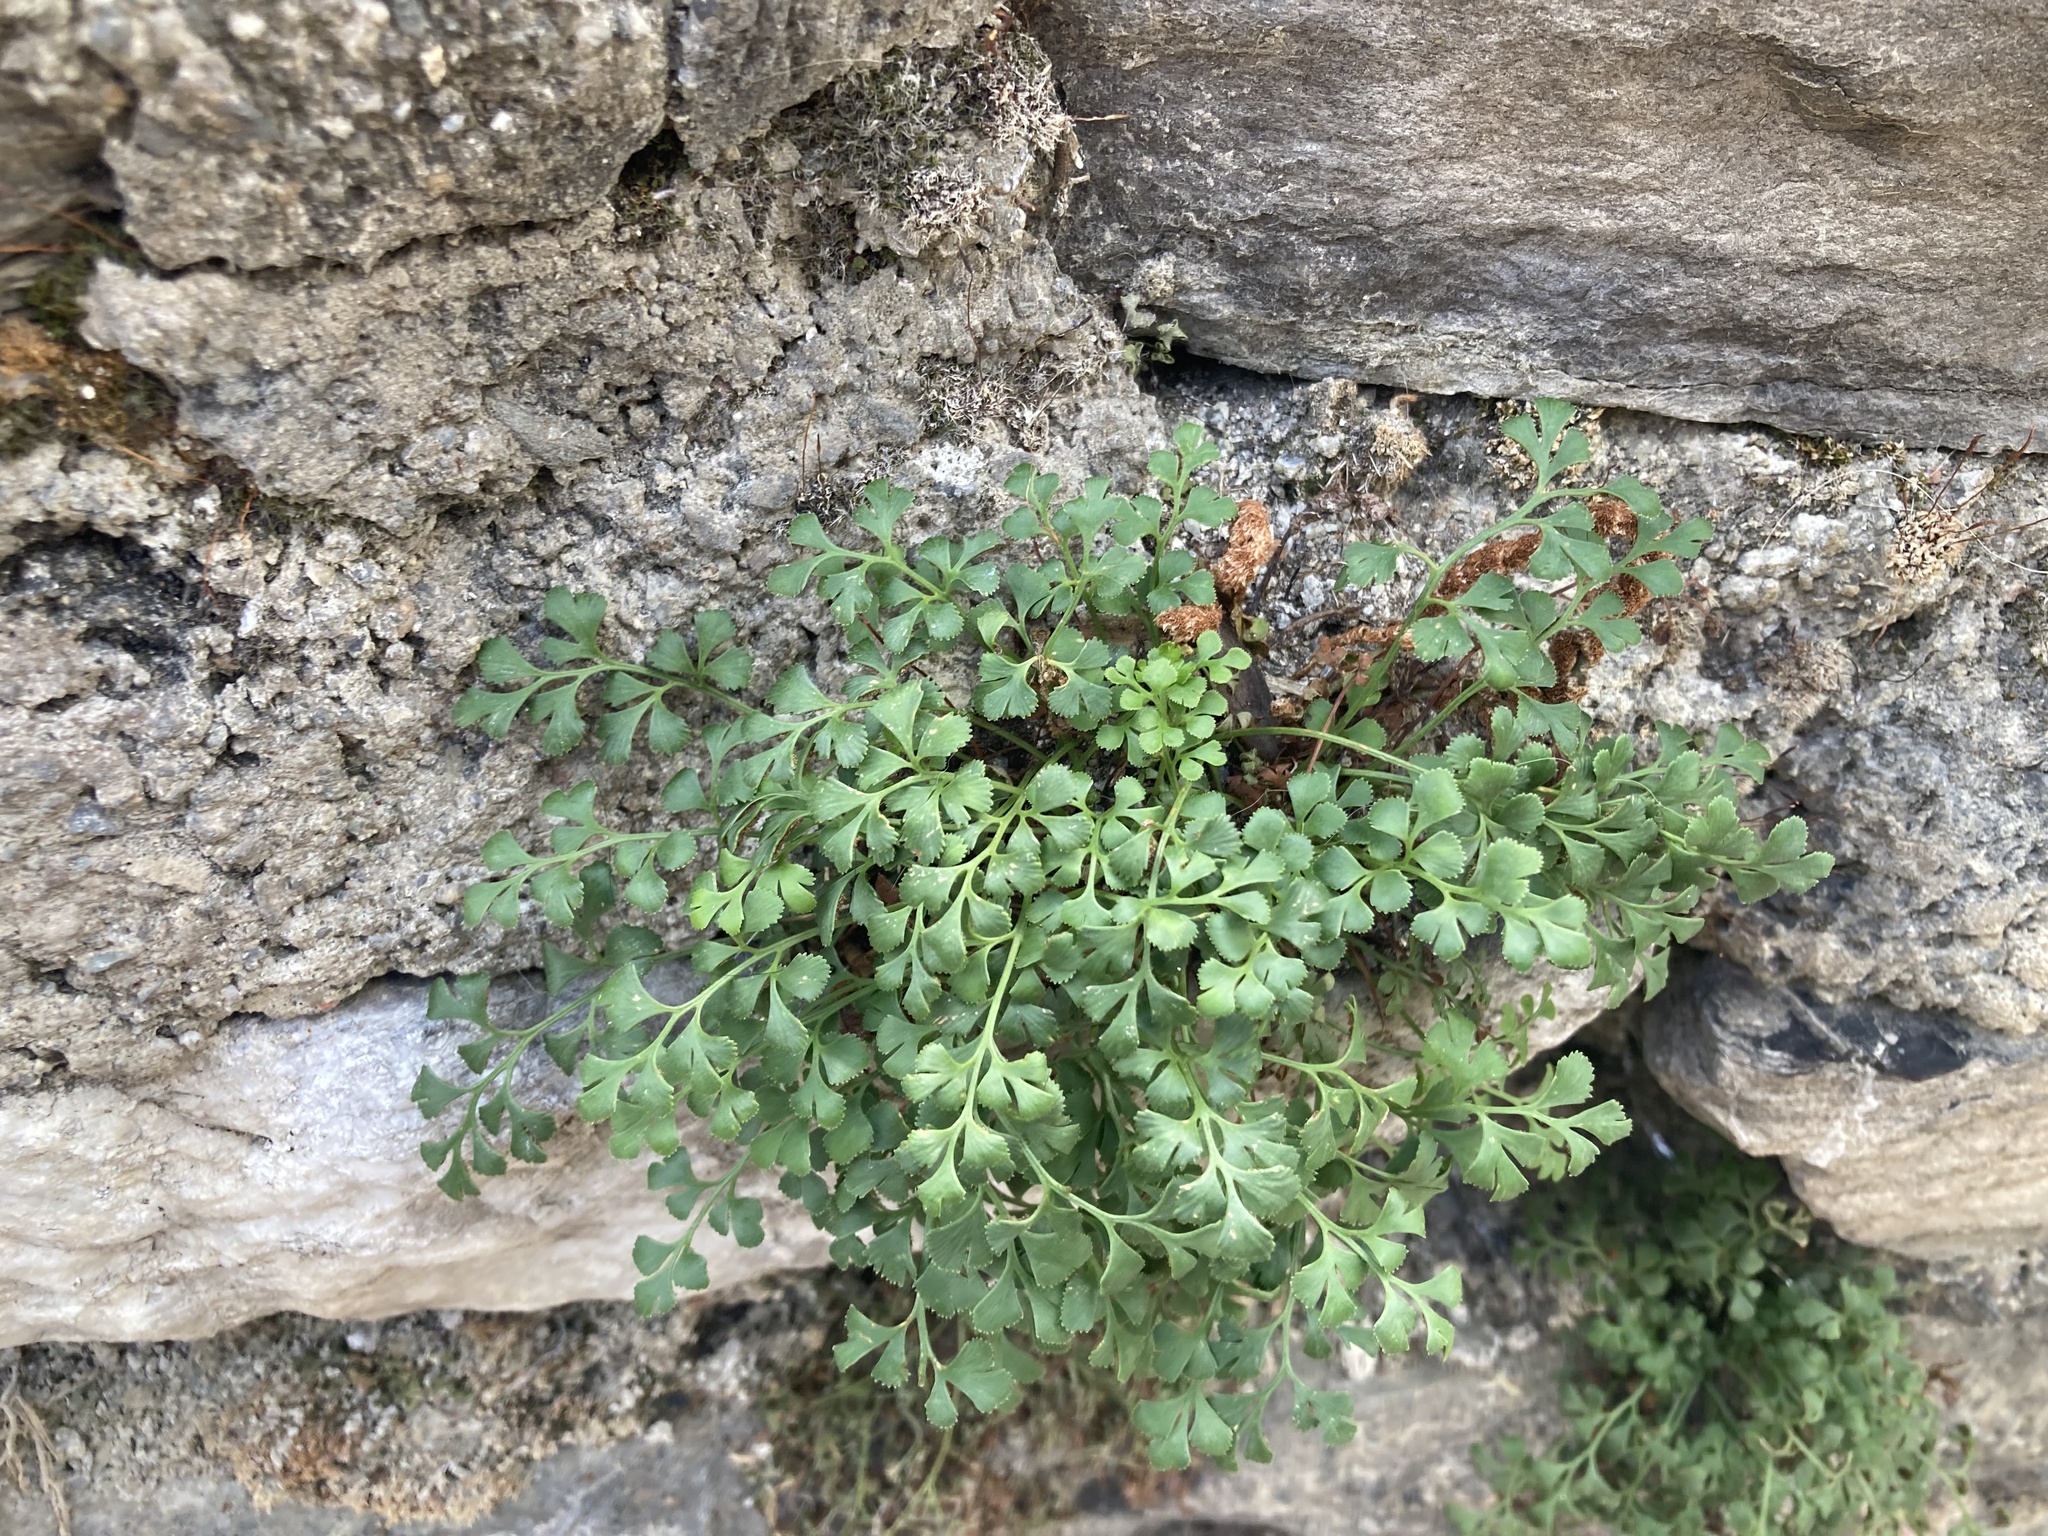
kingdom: Plantae
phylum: Tracheophyta
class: Polypodiopsida
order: Polypodiales
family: Aspleniaceae
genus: Asplenium
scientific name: Asplenium ruta-muraria
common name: Wall-rue
